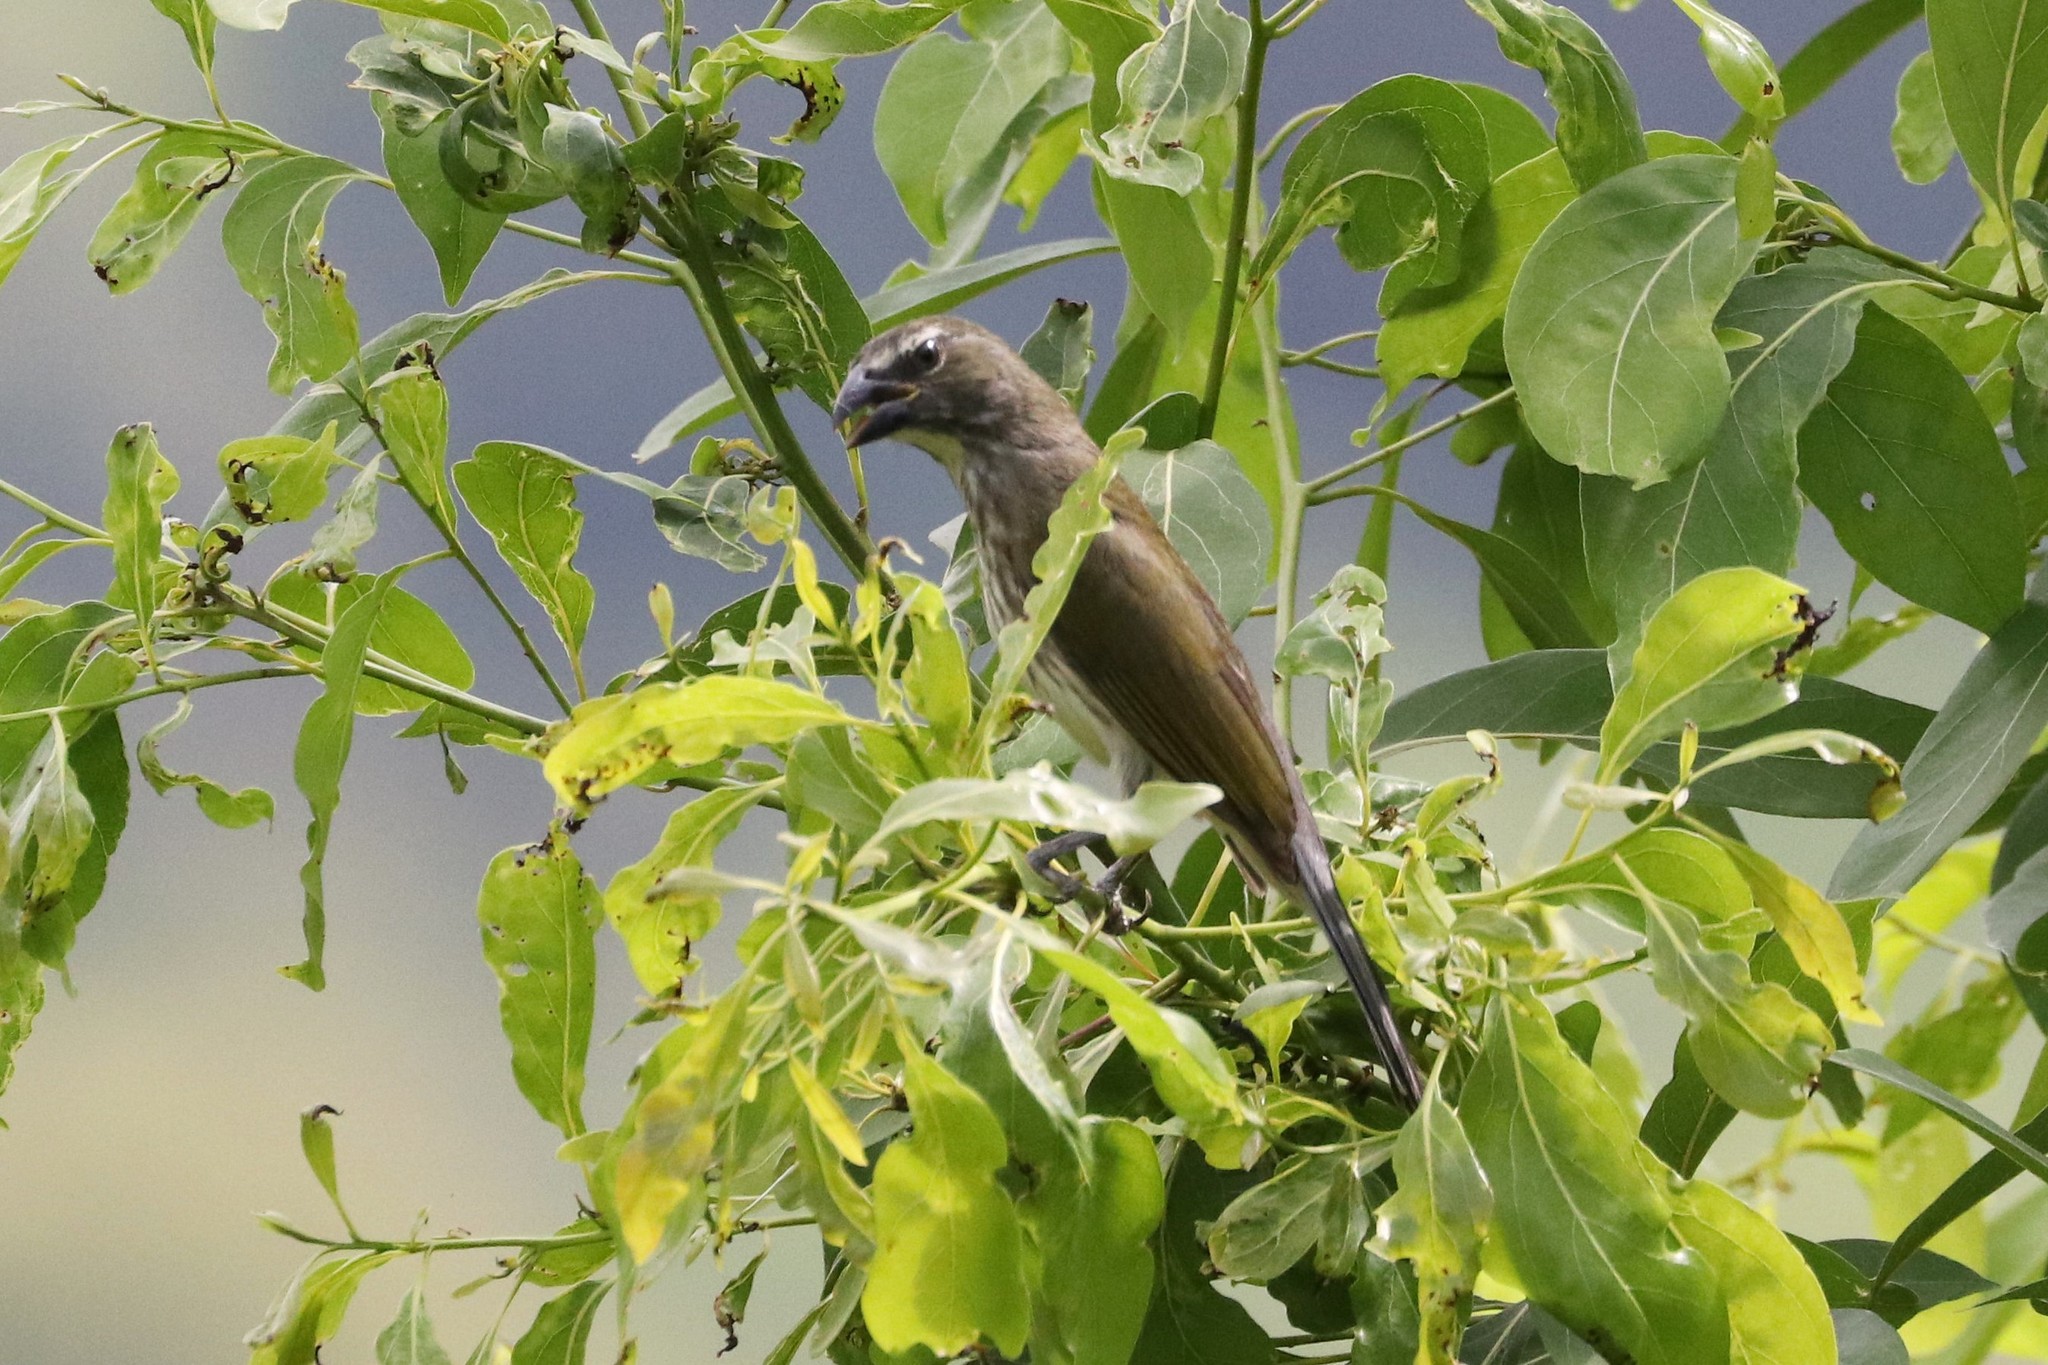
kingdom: Animalia
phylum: Chordata
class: Aves
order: Passeriformes
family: Thraupidae
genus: Saltator
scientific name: Saltator striatipectus
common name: Streaked saltator
